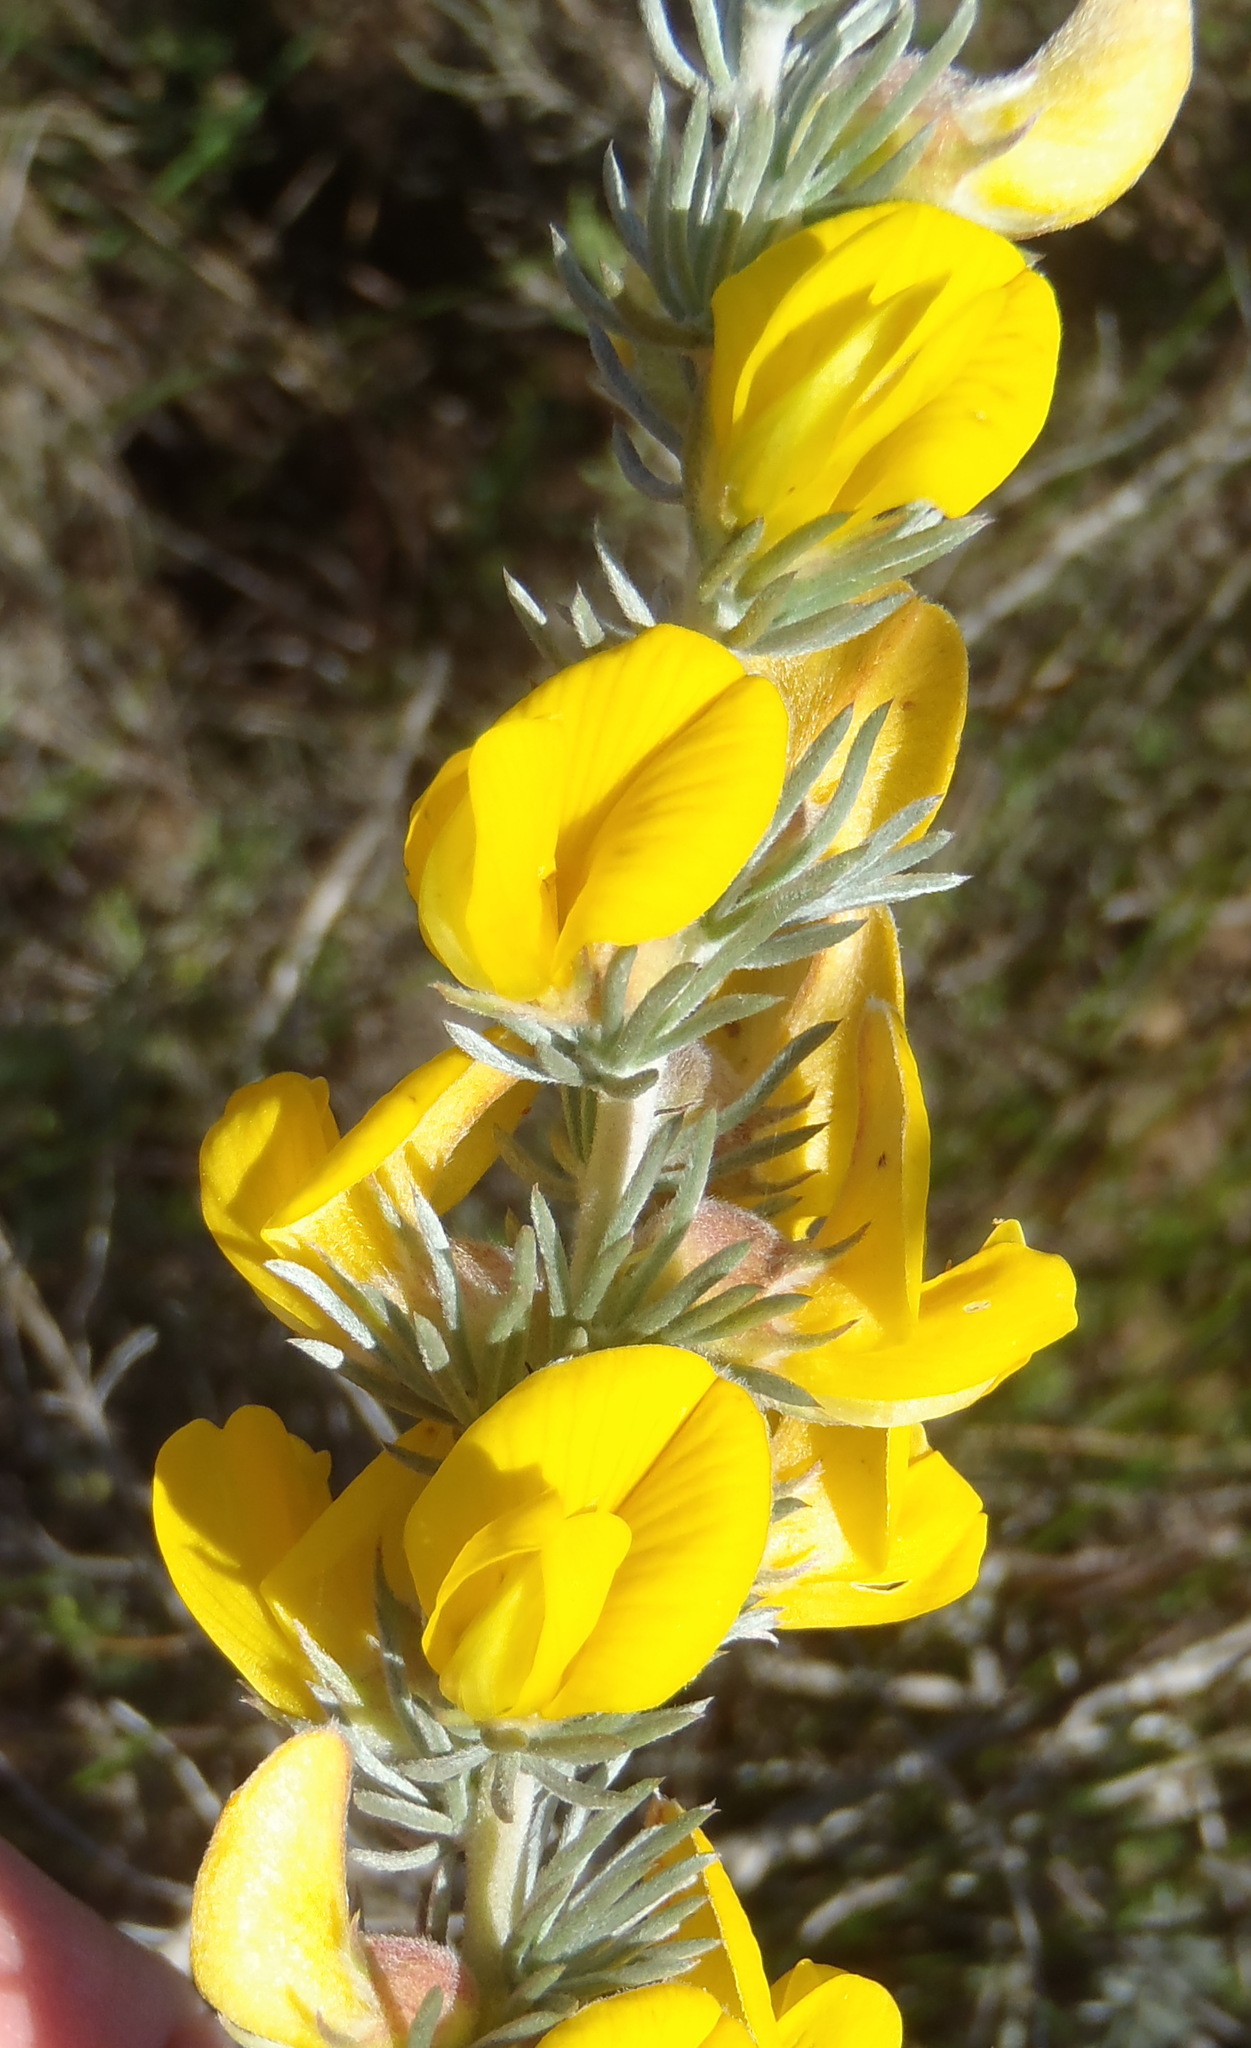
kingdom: Plantae
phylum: Tracheophyta
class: Magnoliopsida
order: Fabales
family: Fabaceae
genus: Aspalathus
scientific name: Aspalathus laricifolia
